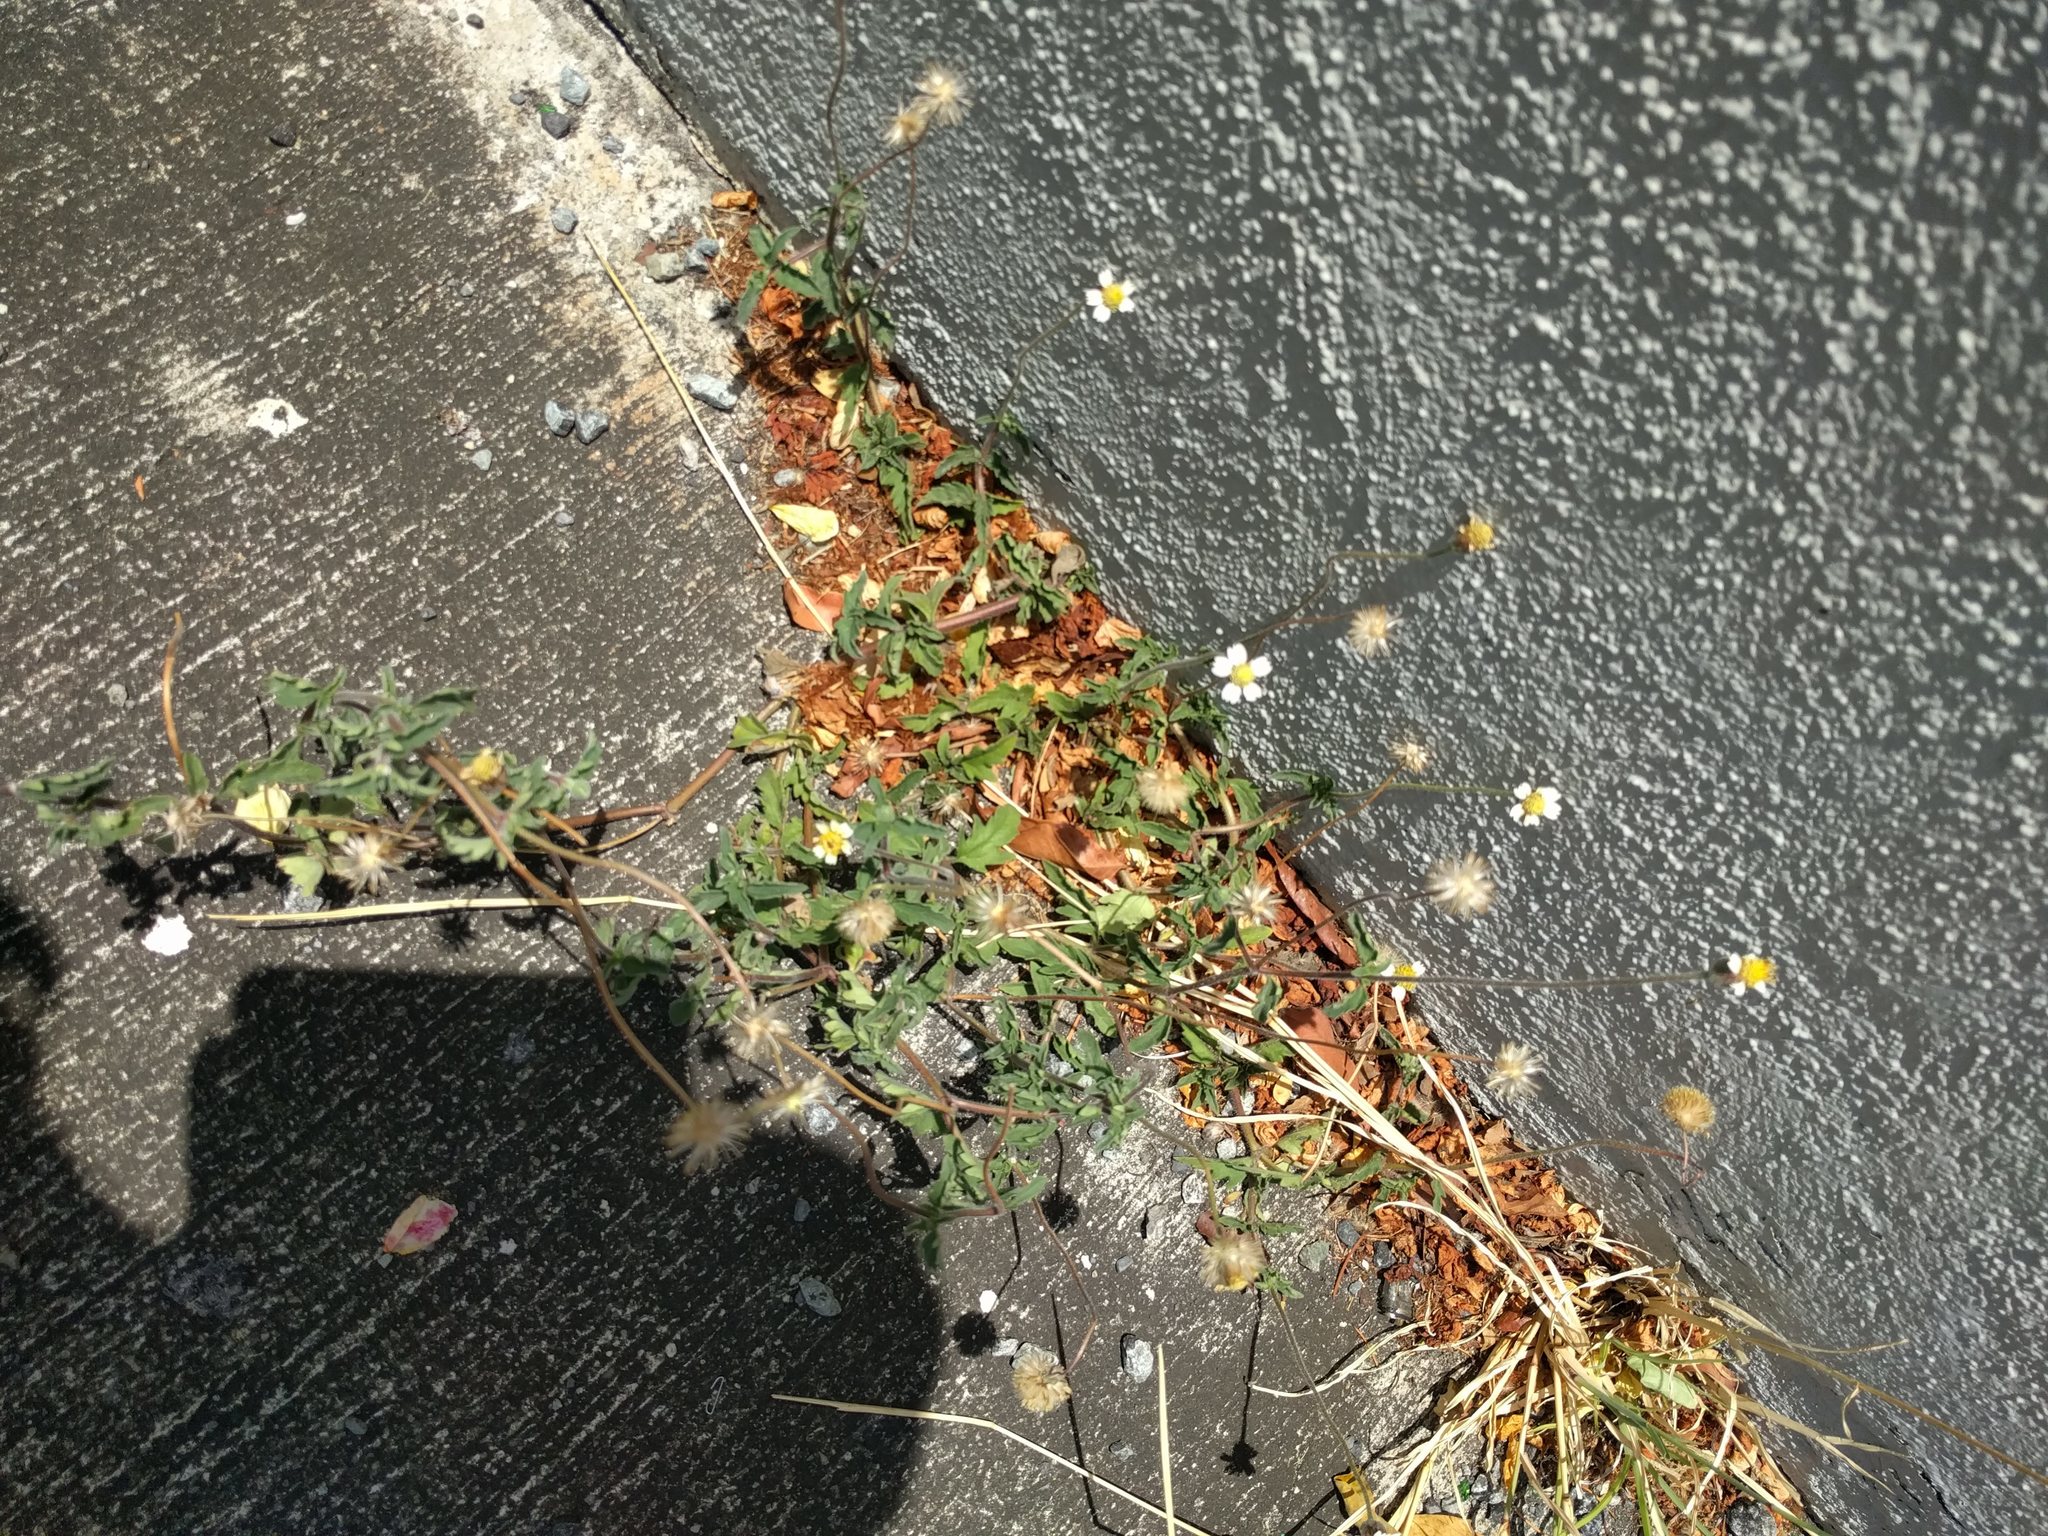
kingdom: Plantae
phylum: Tracheophyta
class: Magnoliopsida
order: Asterales
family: Asteraceae
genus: Tridax
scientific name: Tridax procumbens
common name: Coatbuttons
